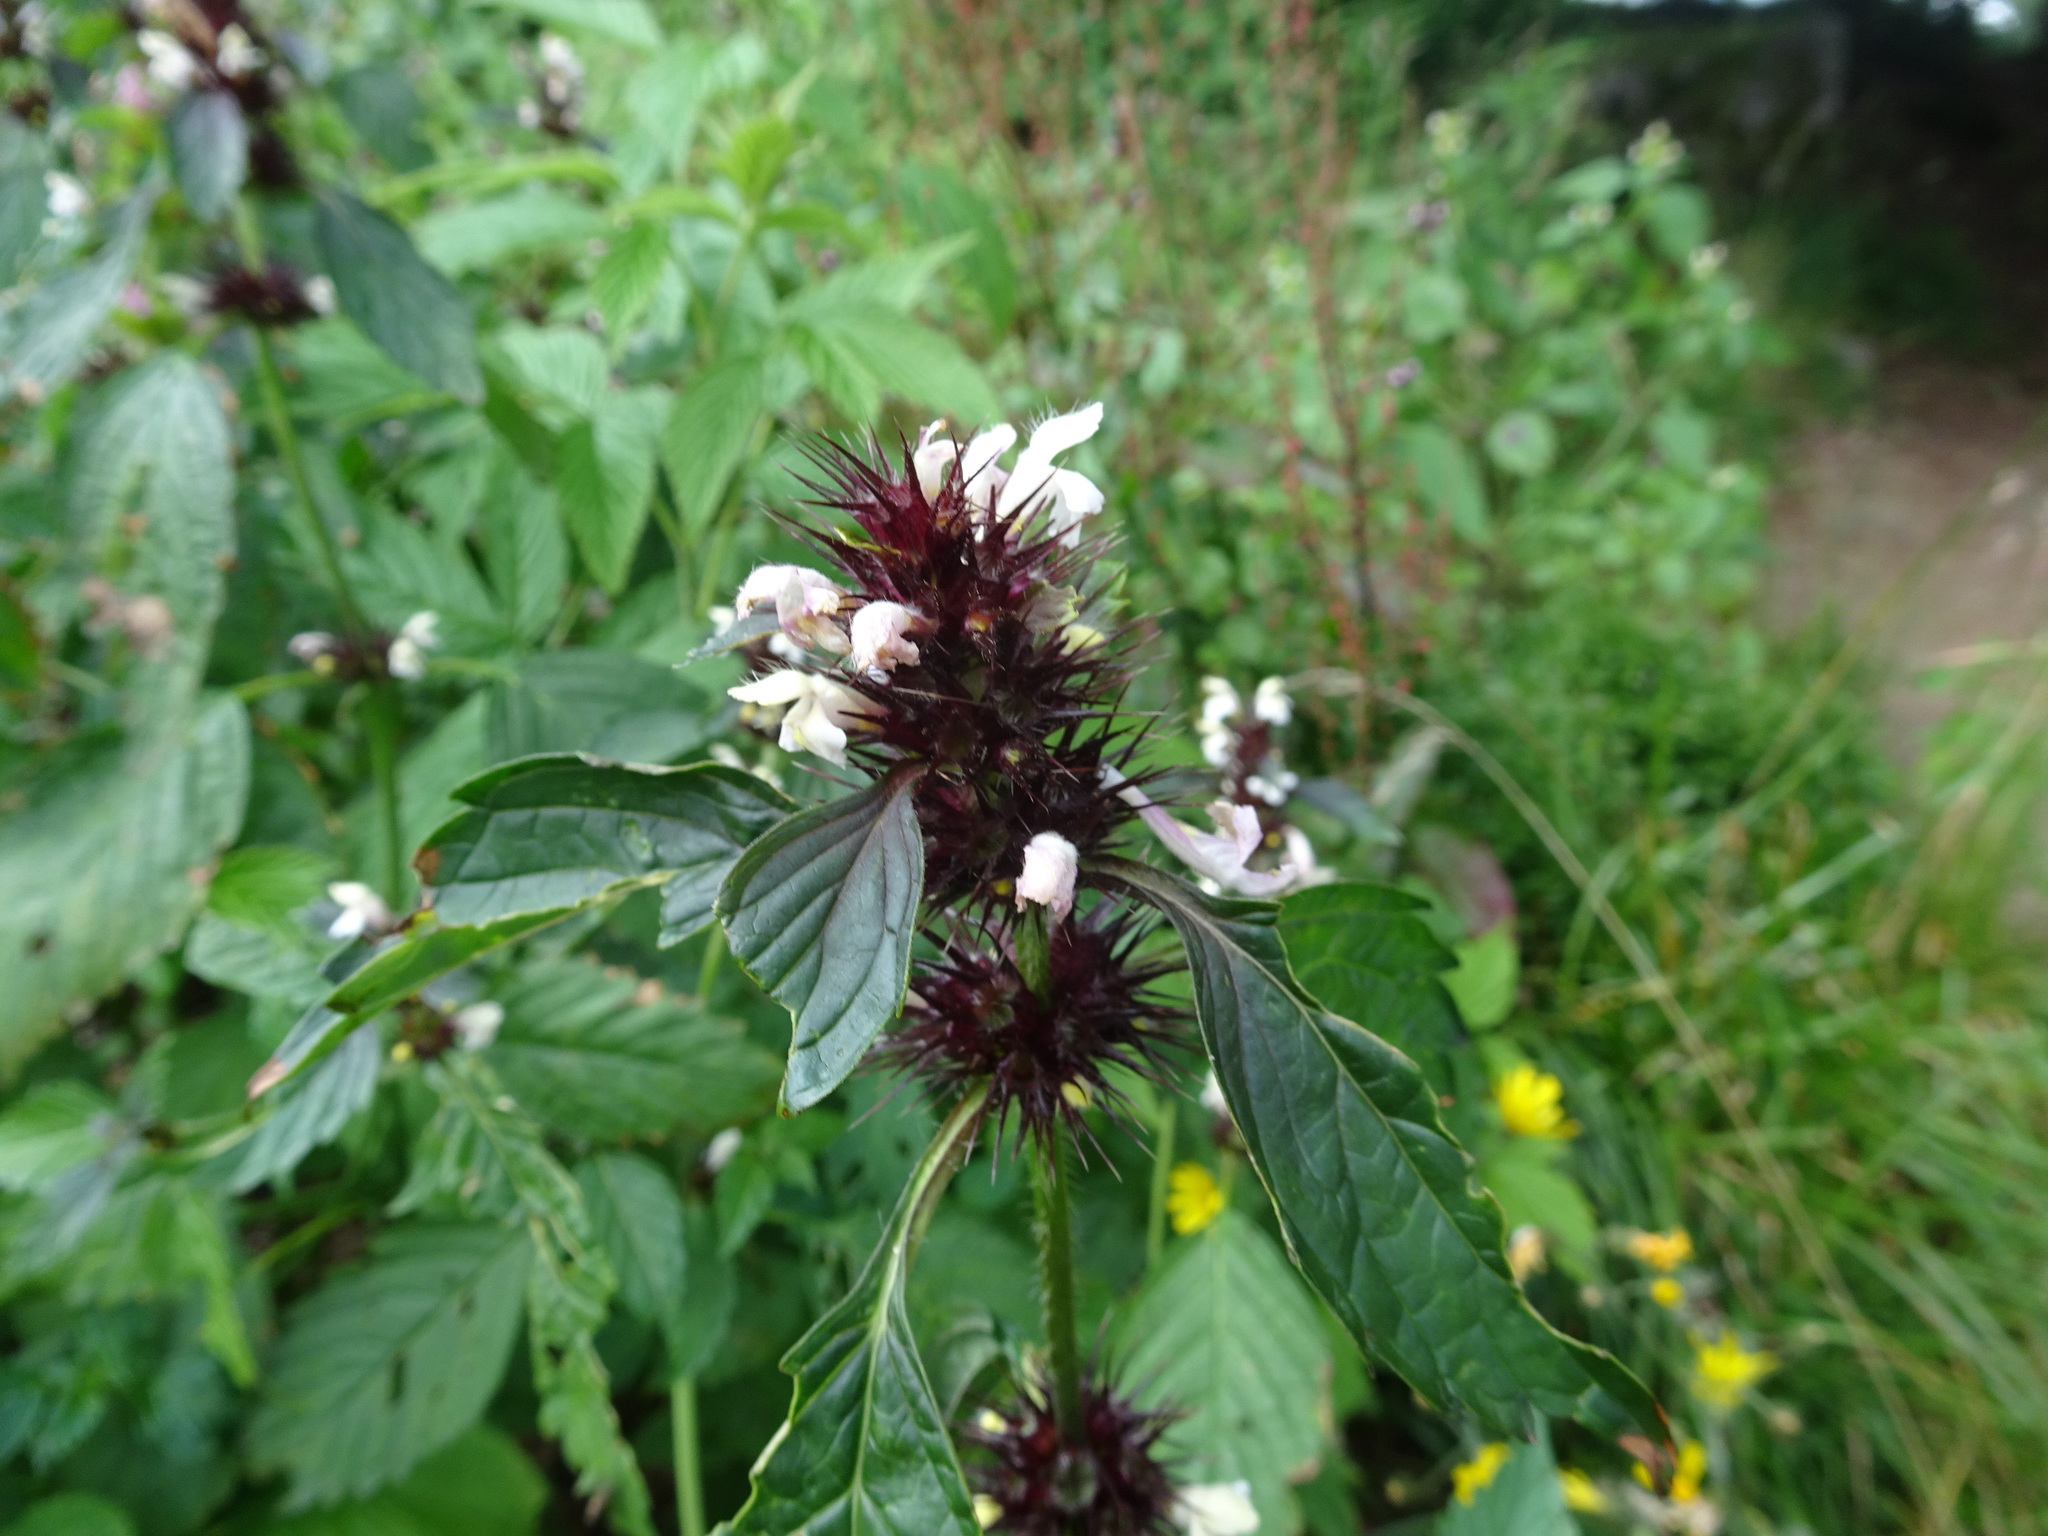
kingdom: Plantae
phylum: Tracheophyta
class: Magnoliopsida
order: Lamiales
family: Lamiaceae
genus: Galeopsis
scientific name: Galeopsis tetrahit
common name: Common hemp-nettle
